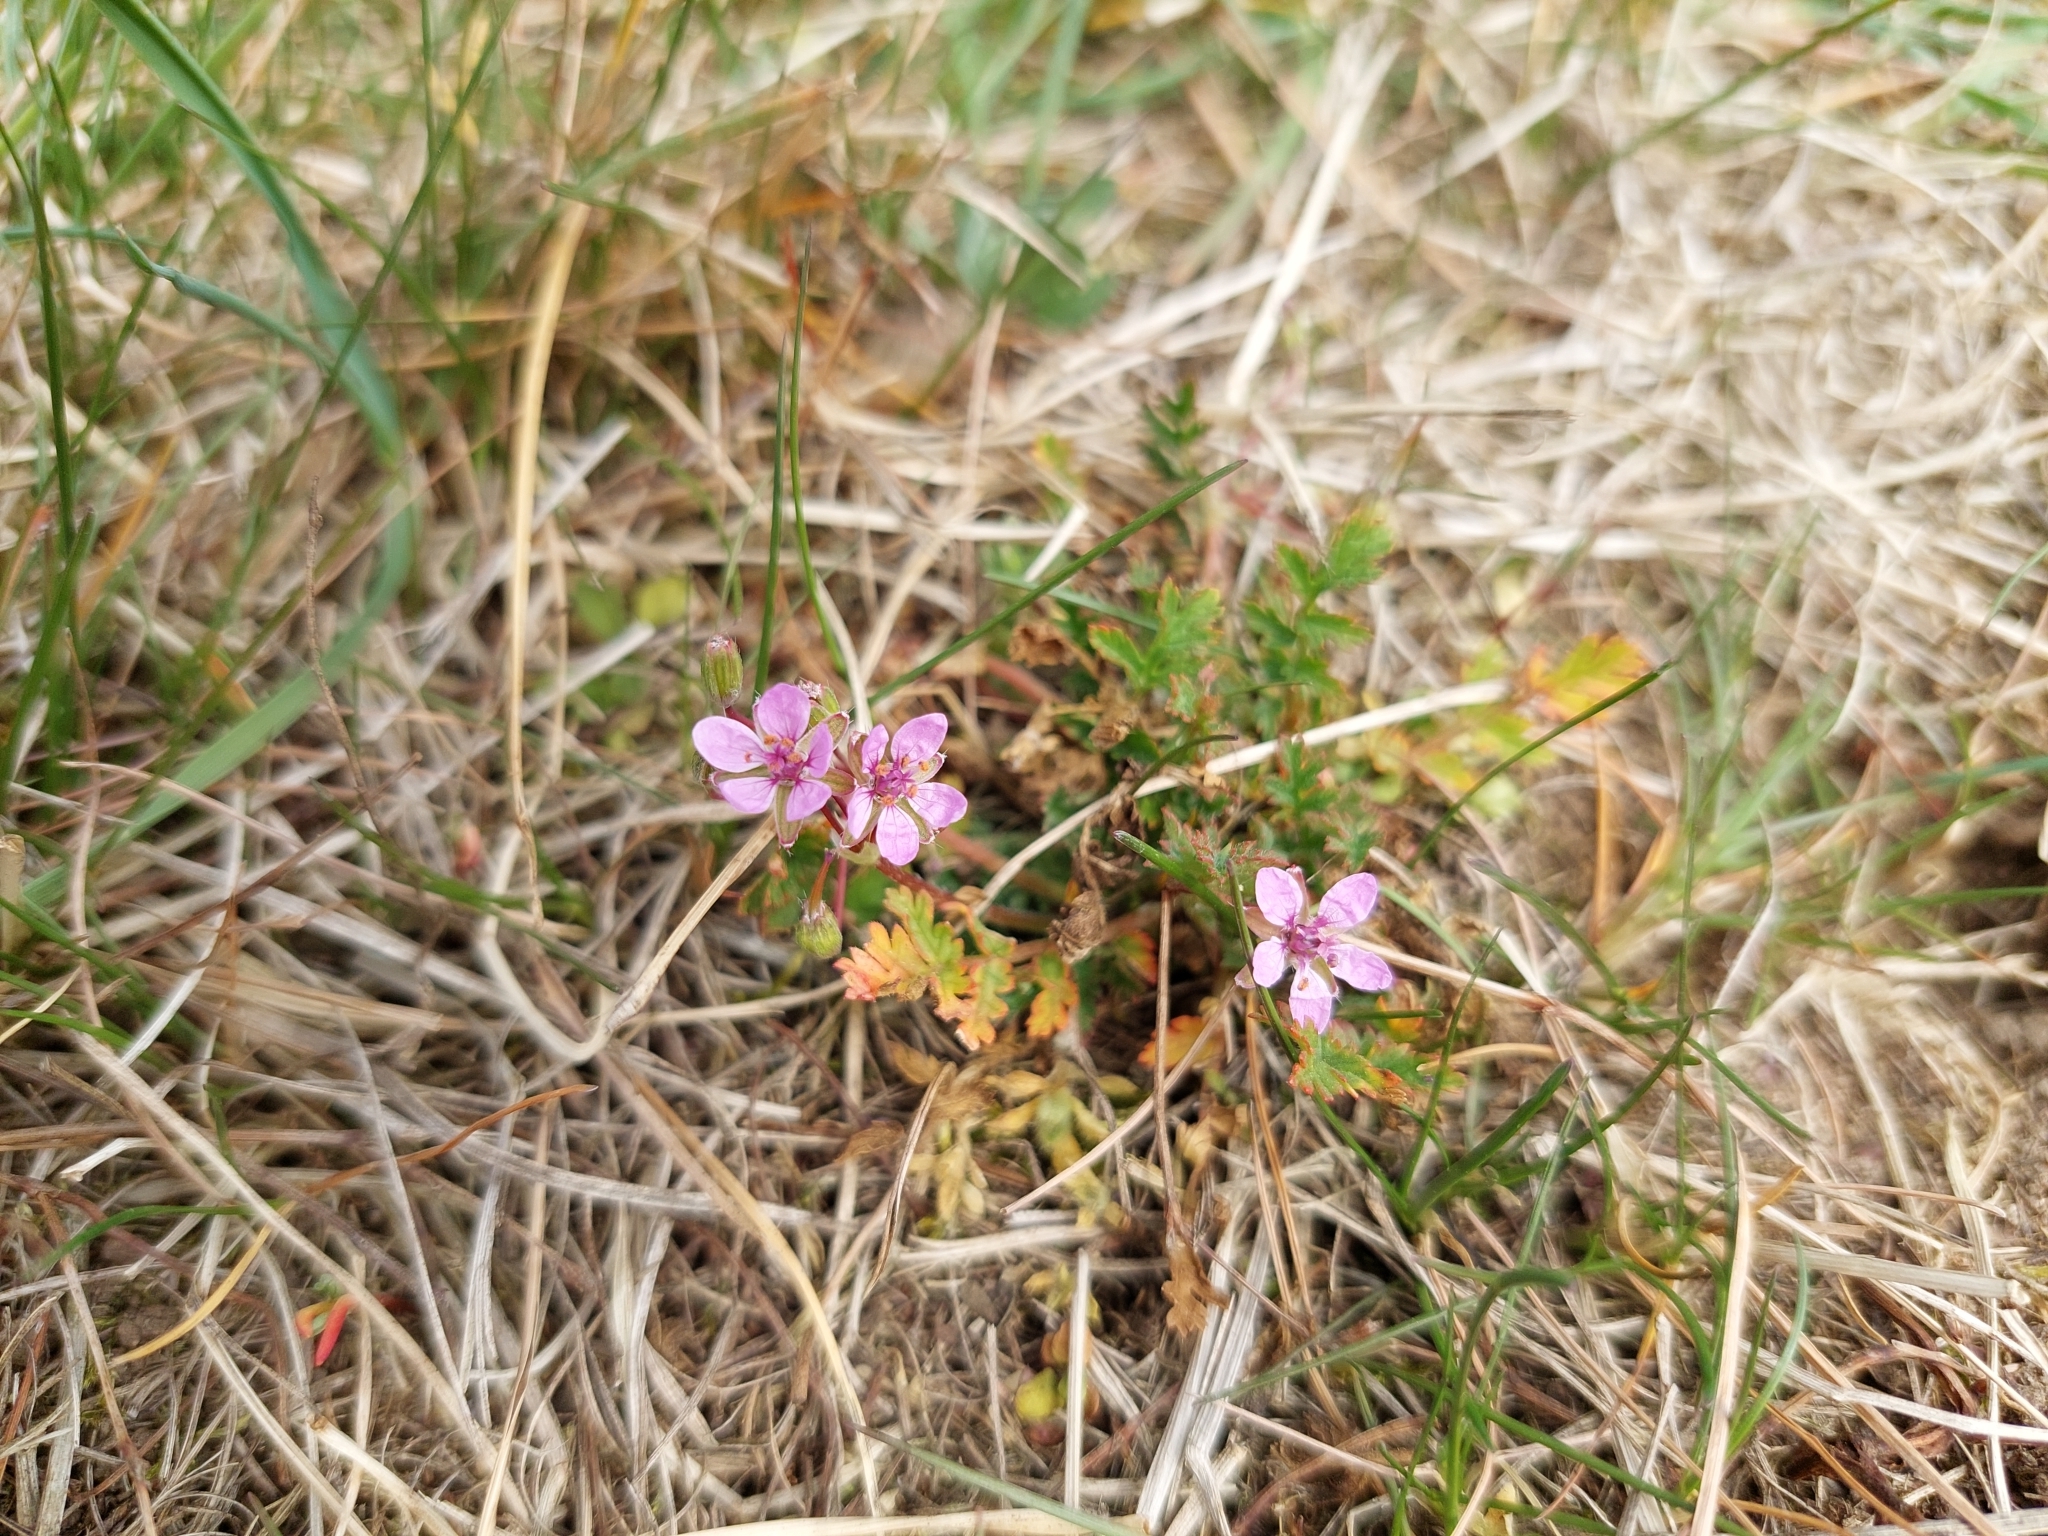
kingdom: Plantae
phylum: Tracheophyta
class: Magnoliopsida
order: Geraniales
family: Geraniaceae
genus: Erodium
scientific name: Erodium cicutarium
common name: Common stork's-bill
